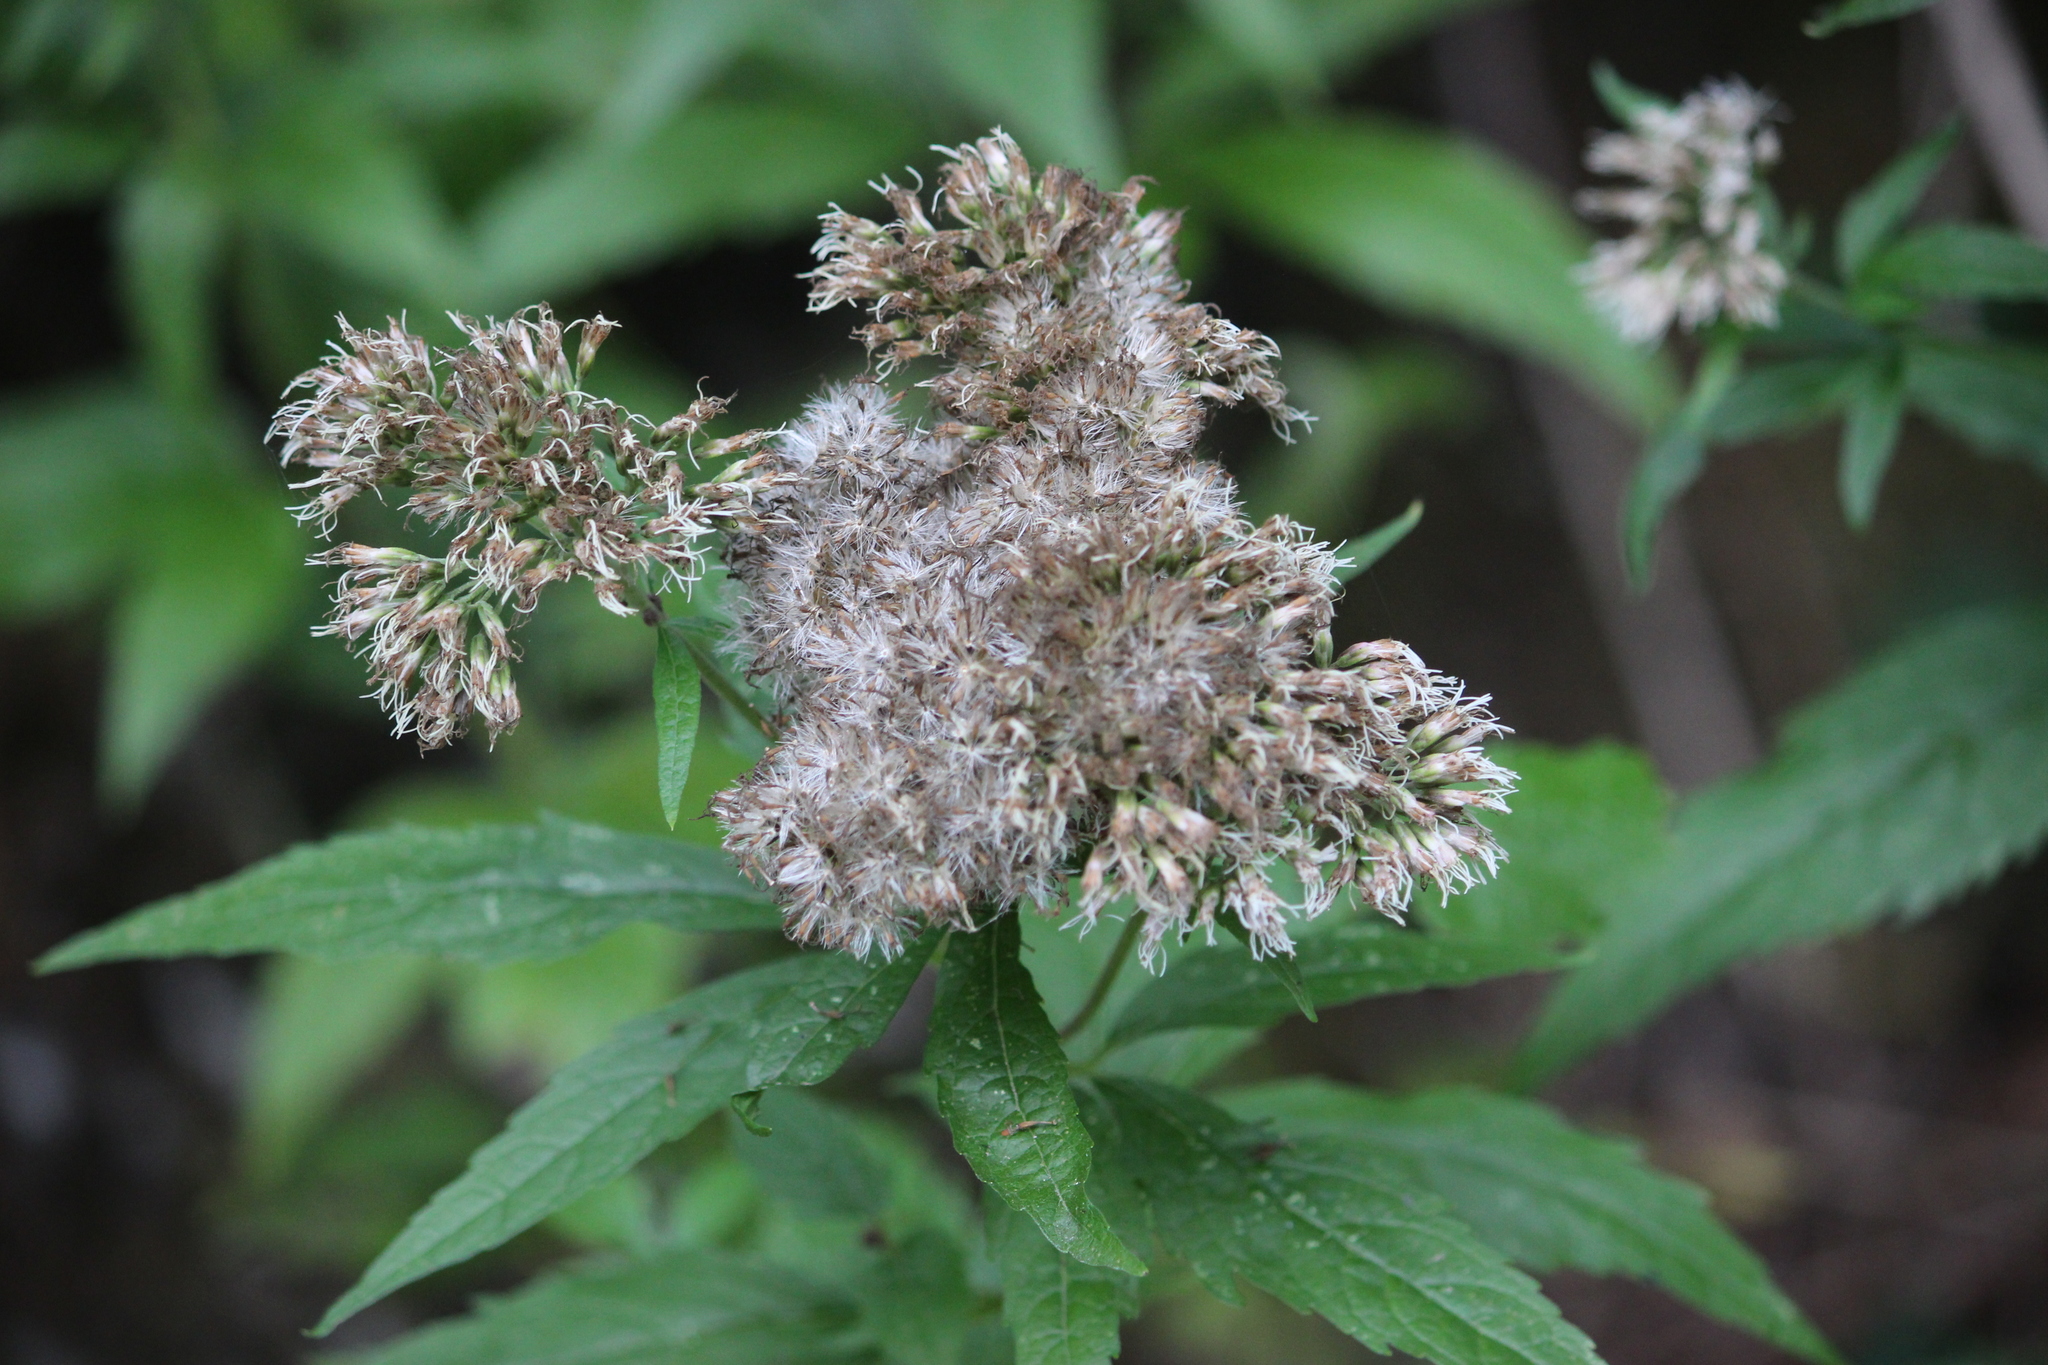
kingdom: Plantae
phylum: Tracheophyta
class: Magnoliopsida
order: Asterales
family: Asteraceae
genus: Eupatorium
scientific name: Eupatorium cannabinum
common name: Hemp-agrimony
